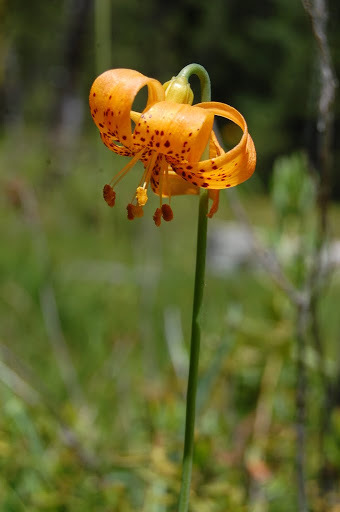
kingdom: Plantae
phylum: Tracheophyta
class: Liliopsida
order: Liliales
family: Liliaceae
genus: Lilium
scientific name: Lilium pardalinum
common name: Panther lily
